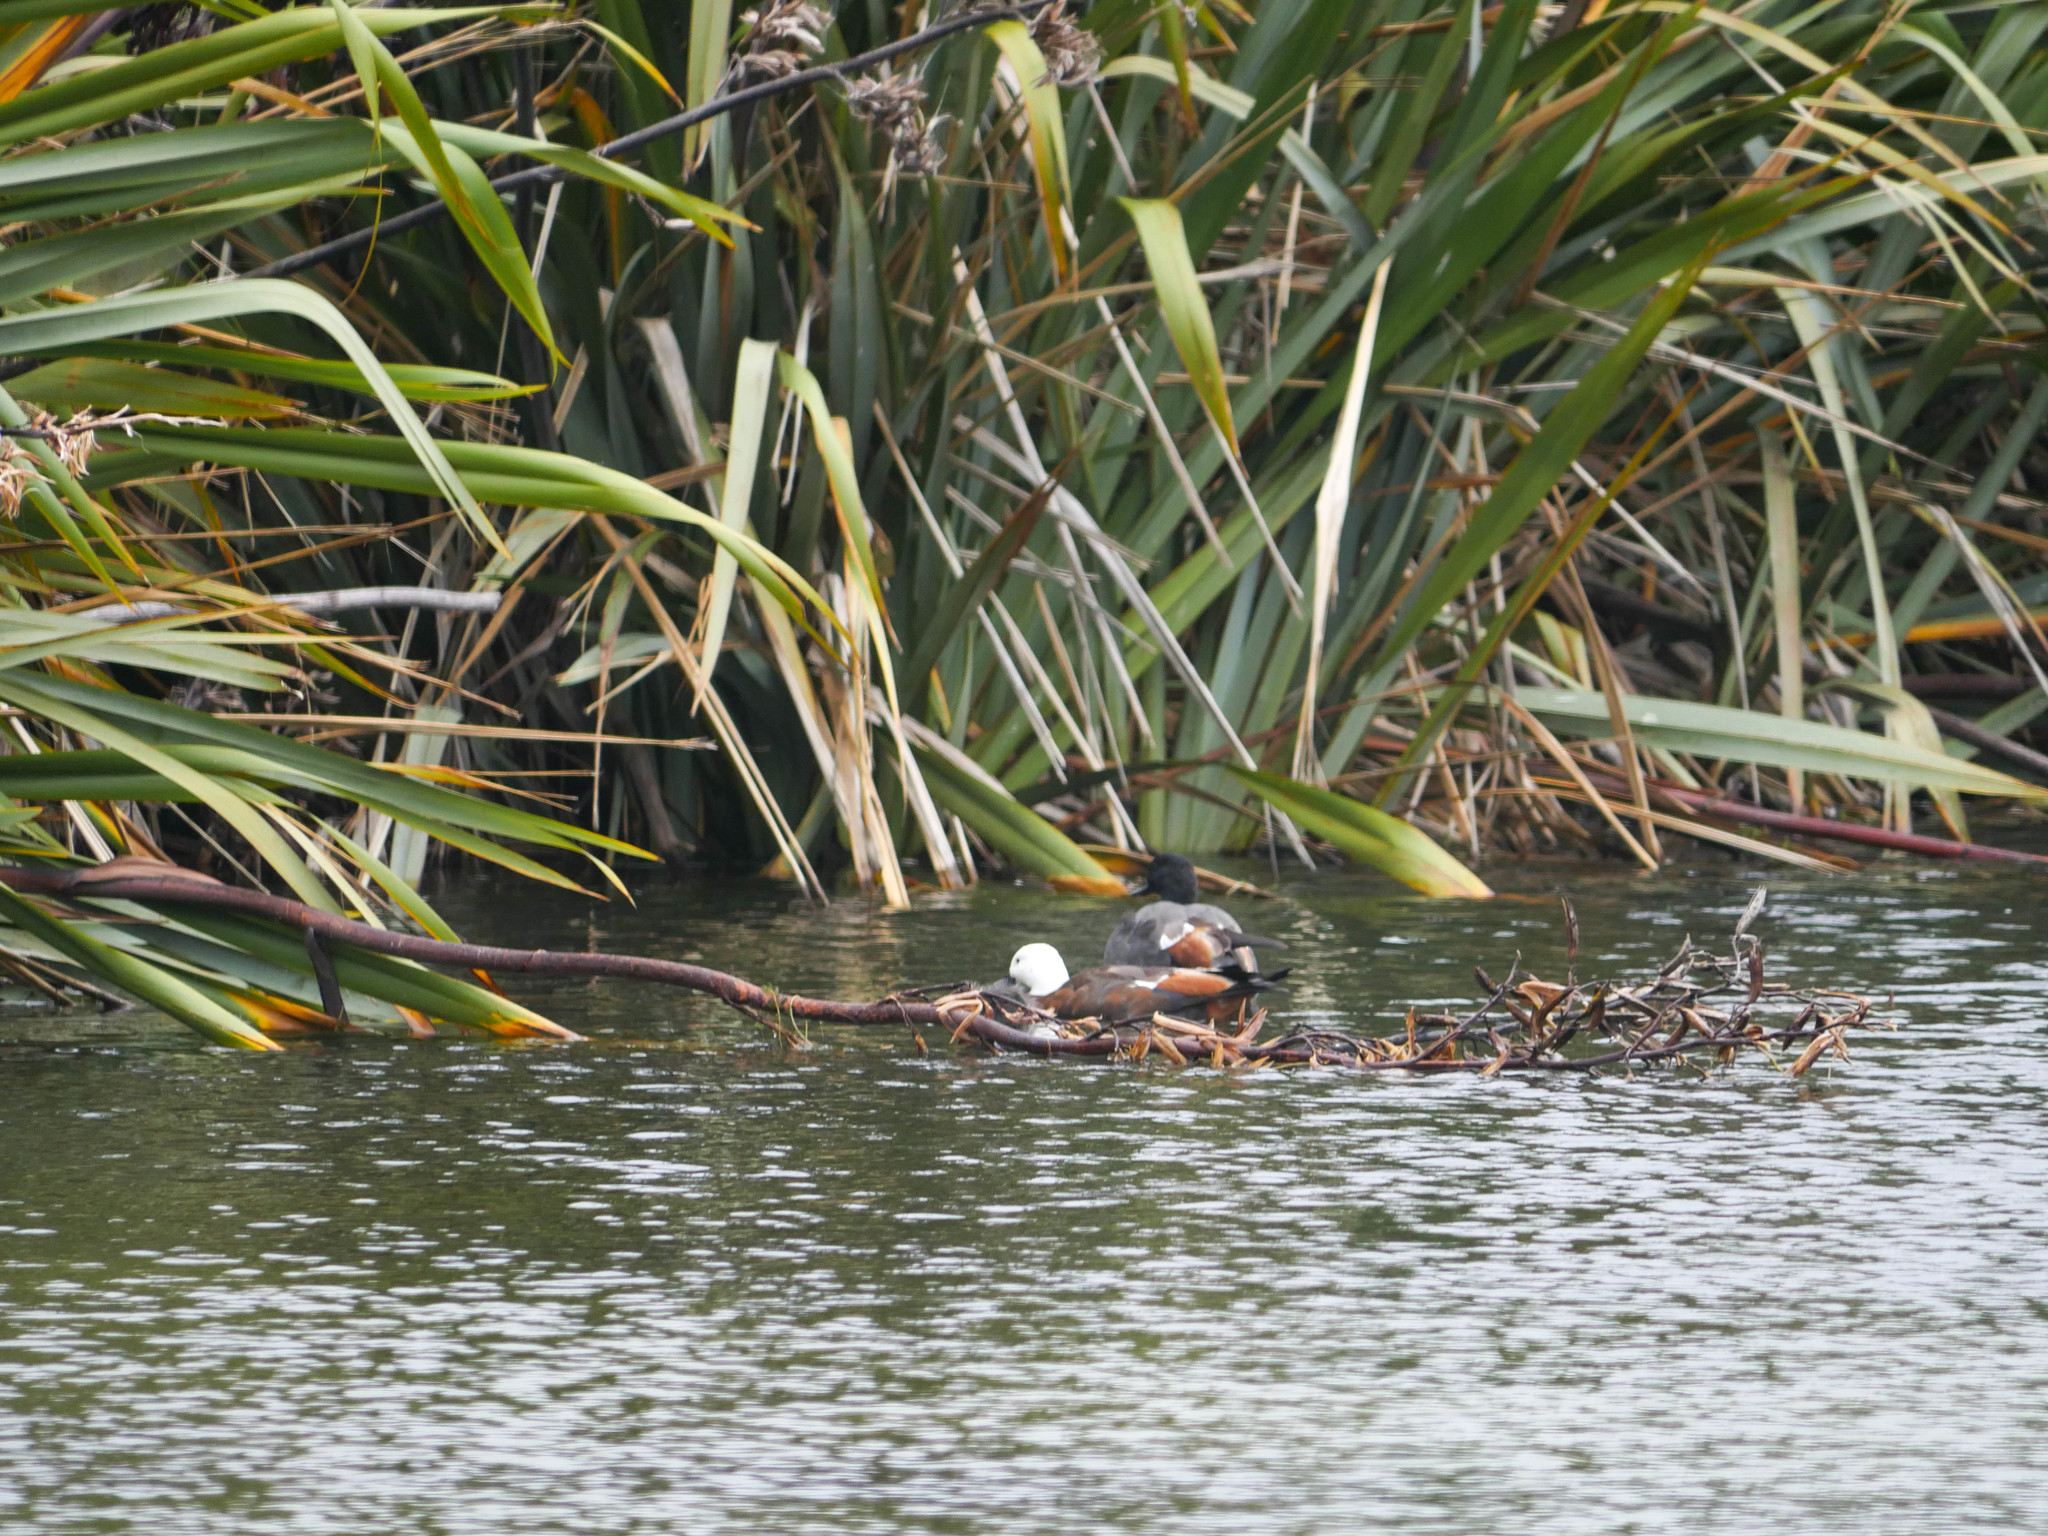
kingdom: Animalia
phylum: Chordata
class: Aves
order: Anseriformes
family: Anatidae
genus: Tadorna
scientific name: Tadorna variegata
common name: Paradise shelduck
